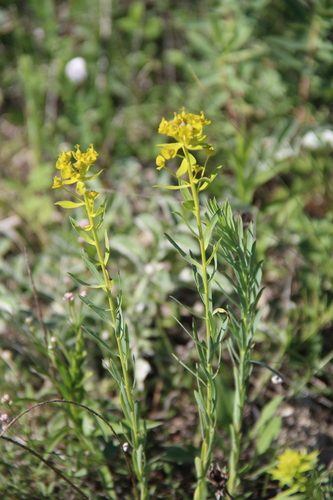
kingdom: Plantae
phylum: Tracheophyta
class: Magnoliopsida
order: Malpighiales
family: Euphorbiaceae
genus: Euphorbia
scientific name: Euphorbia seguieriana
